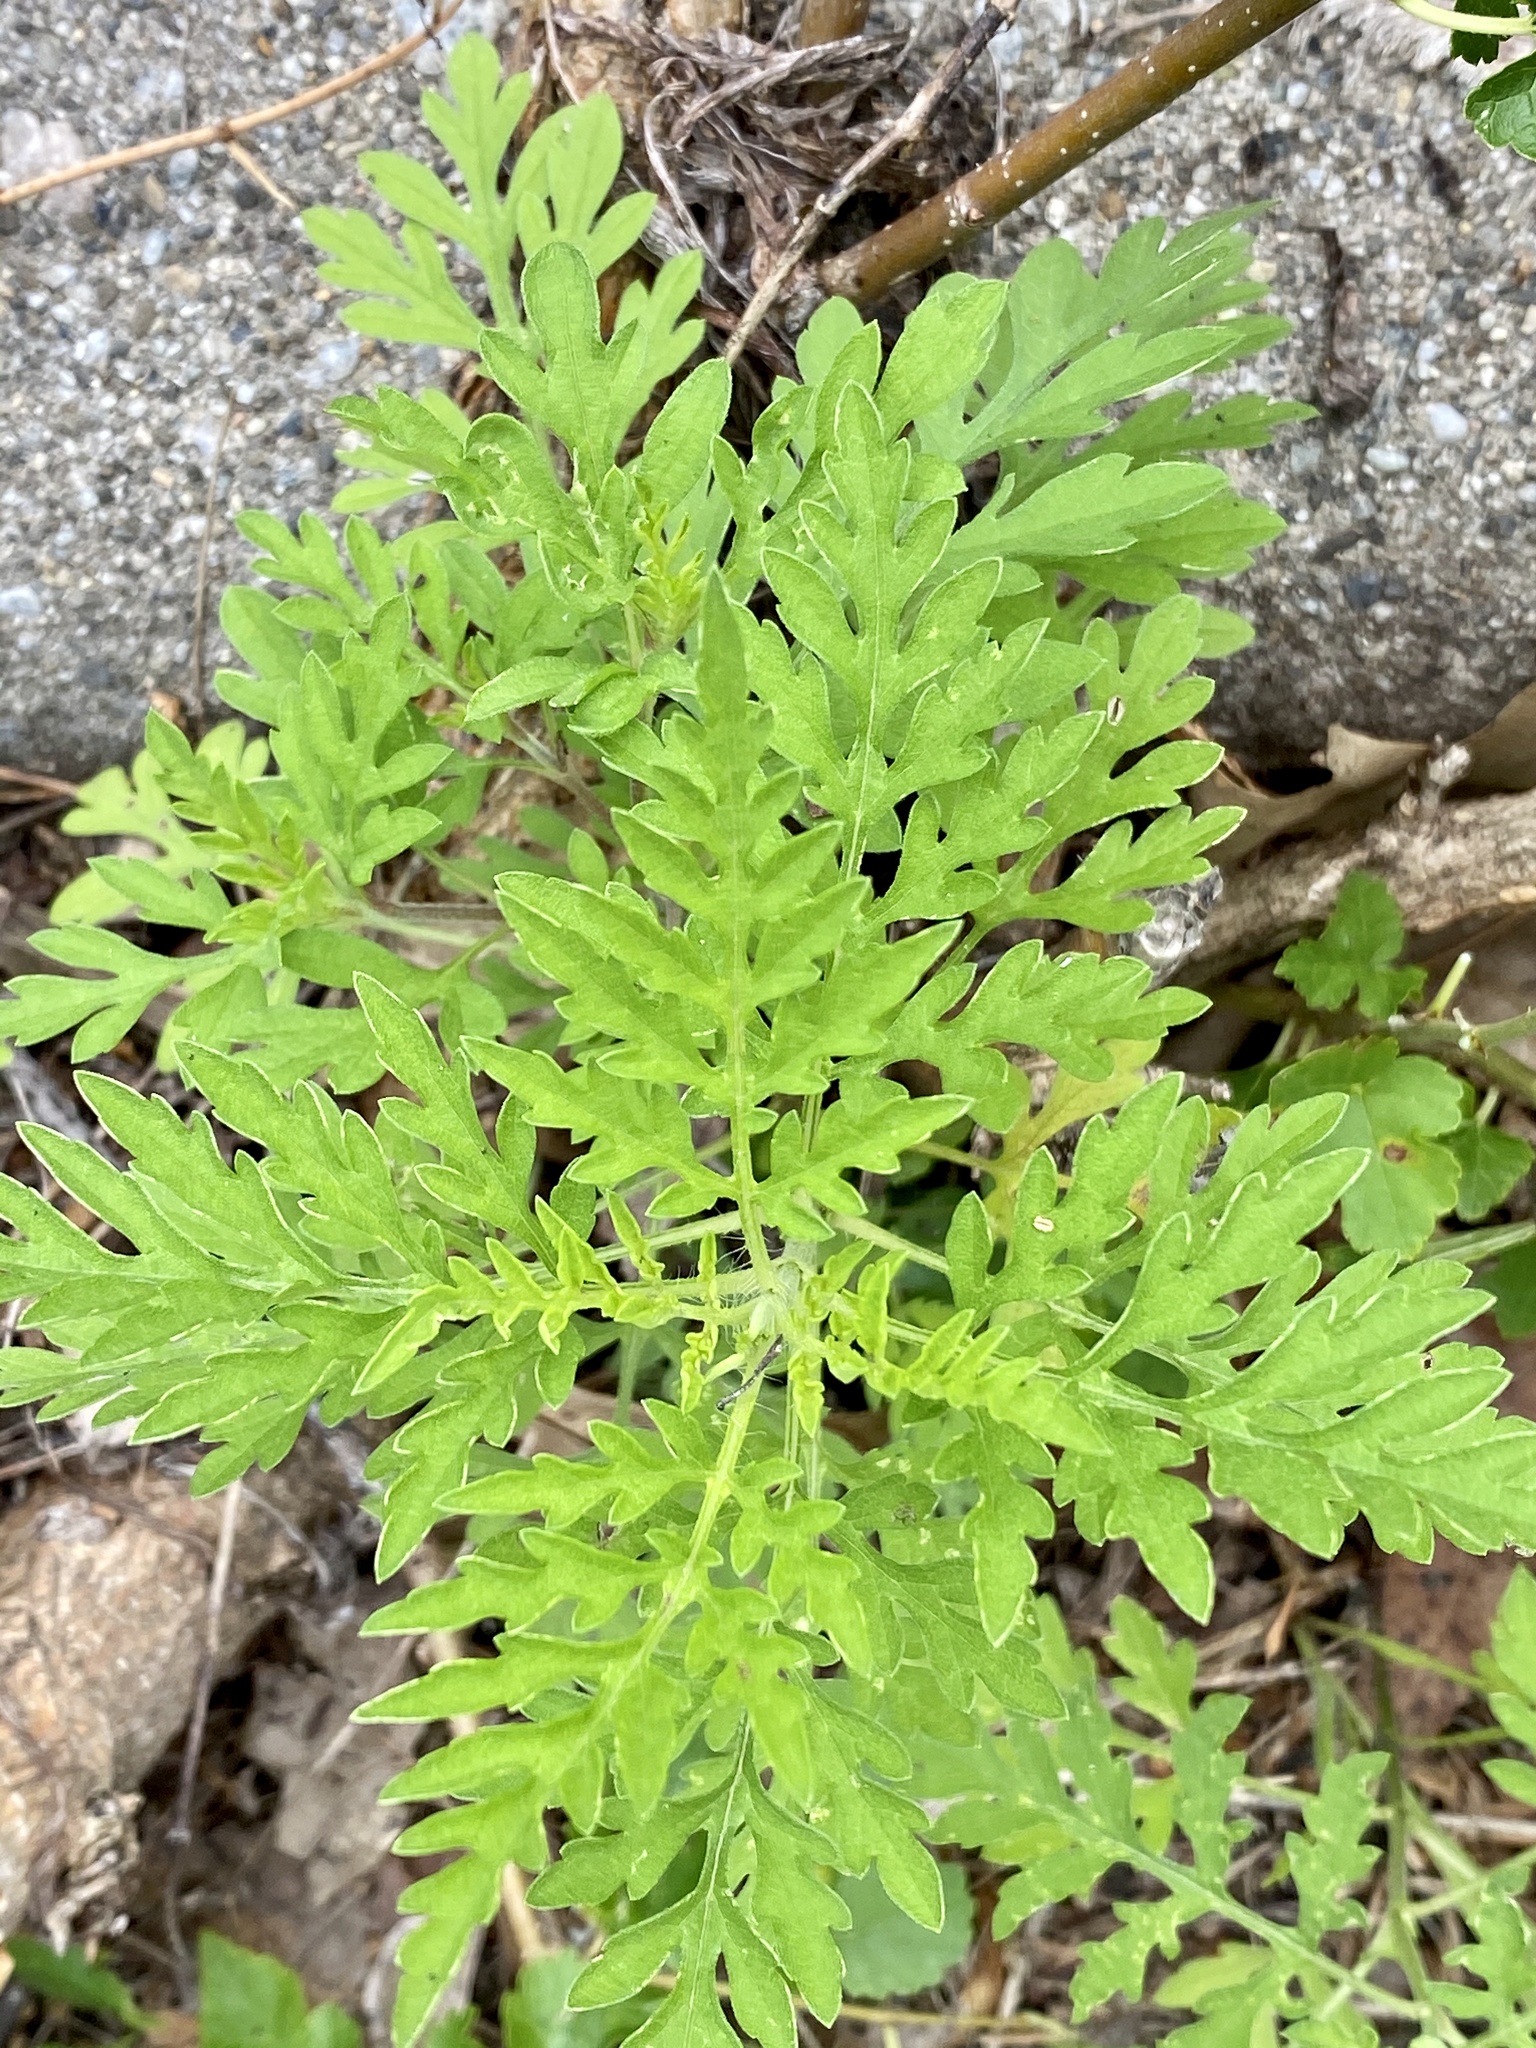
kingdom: Plantae
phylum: Tracheophyta
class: Magnoliopsida
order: Asterales
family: Asteraceae
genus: Ambrosia
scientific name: Ambrosia artemisiifolia
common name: Annual ragweed
